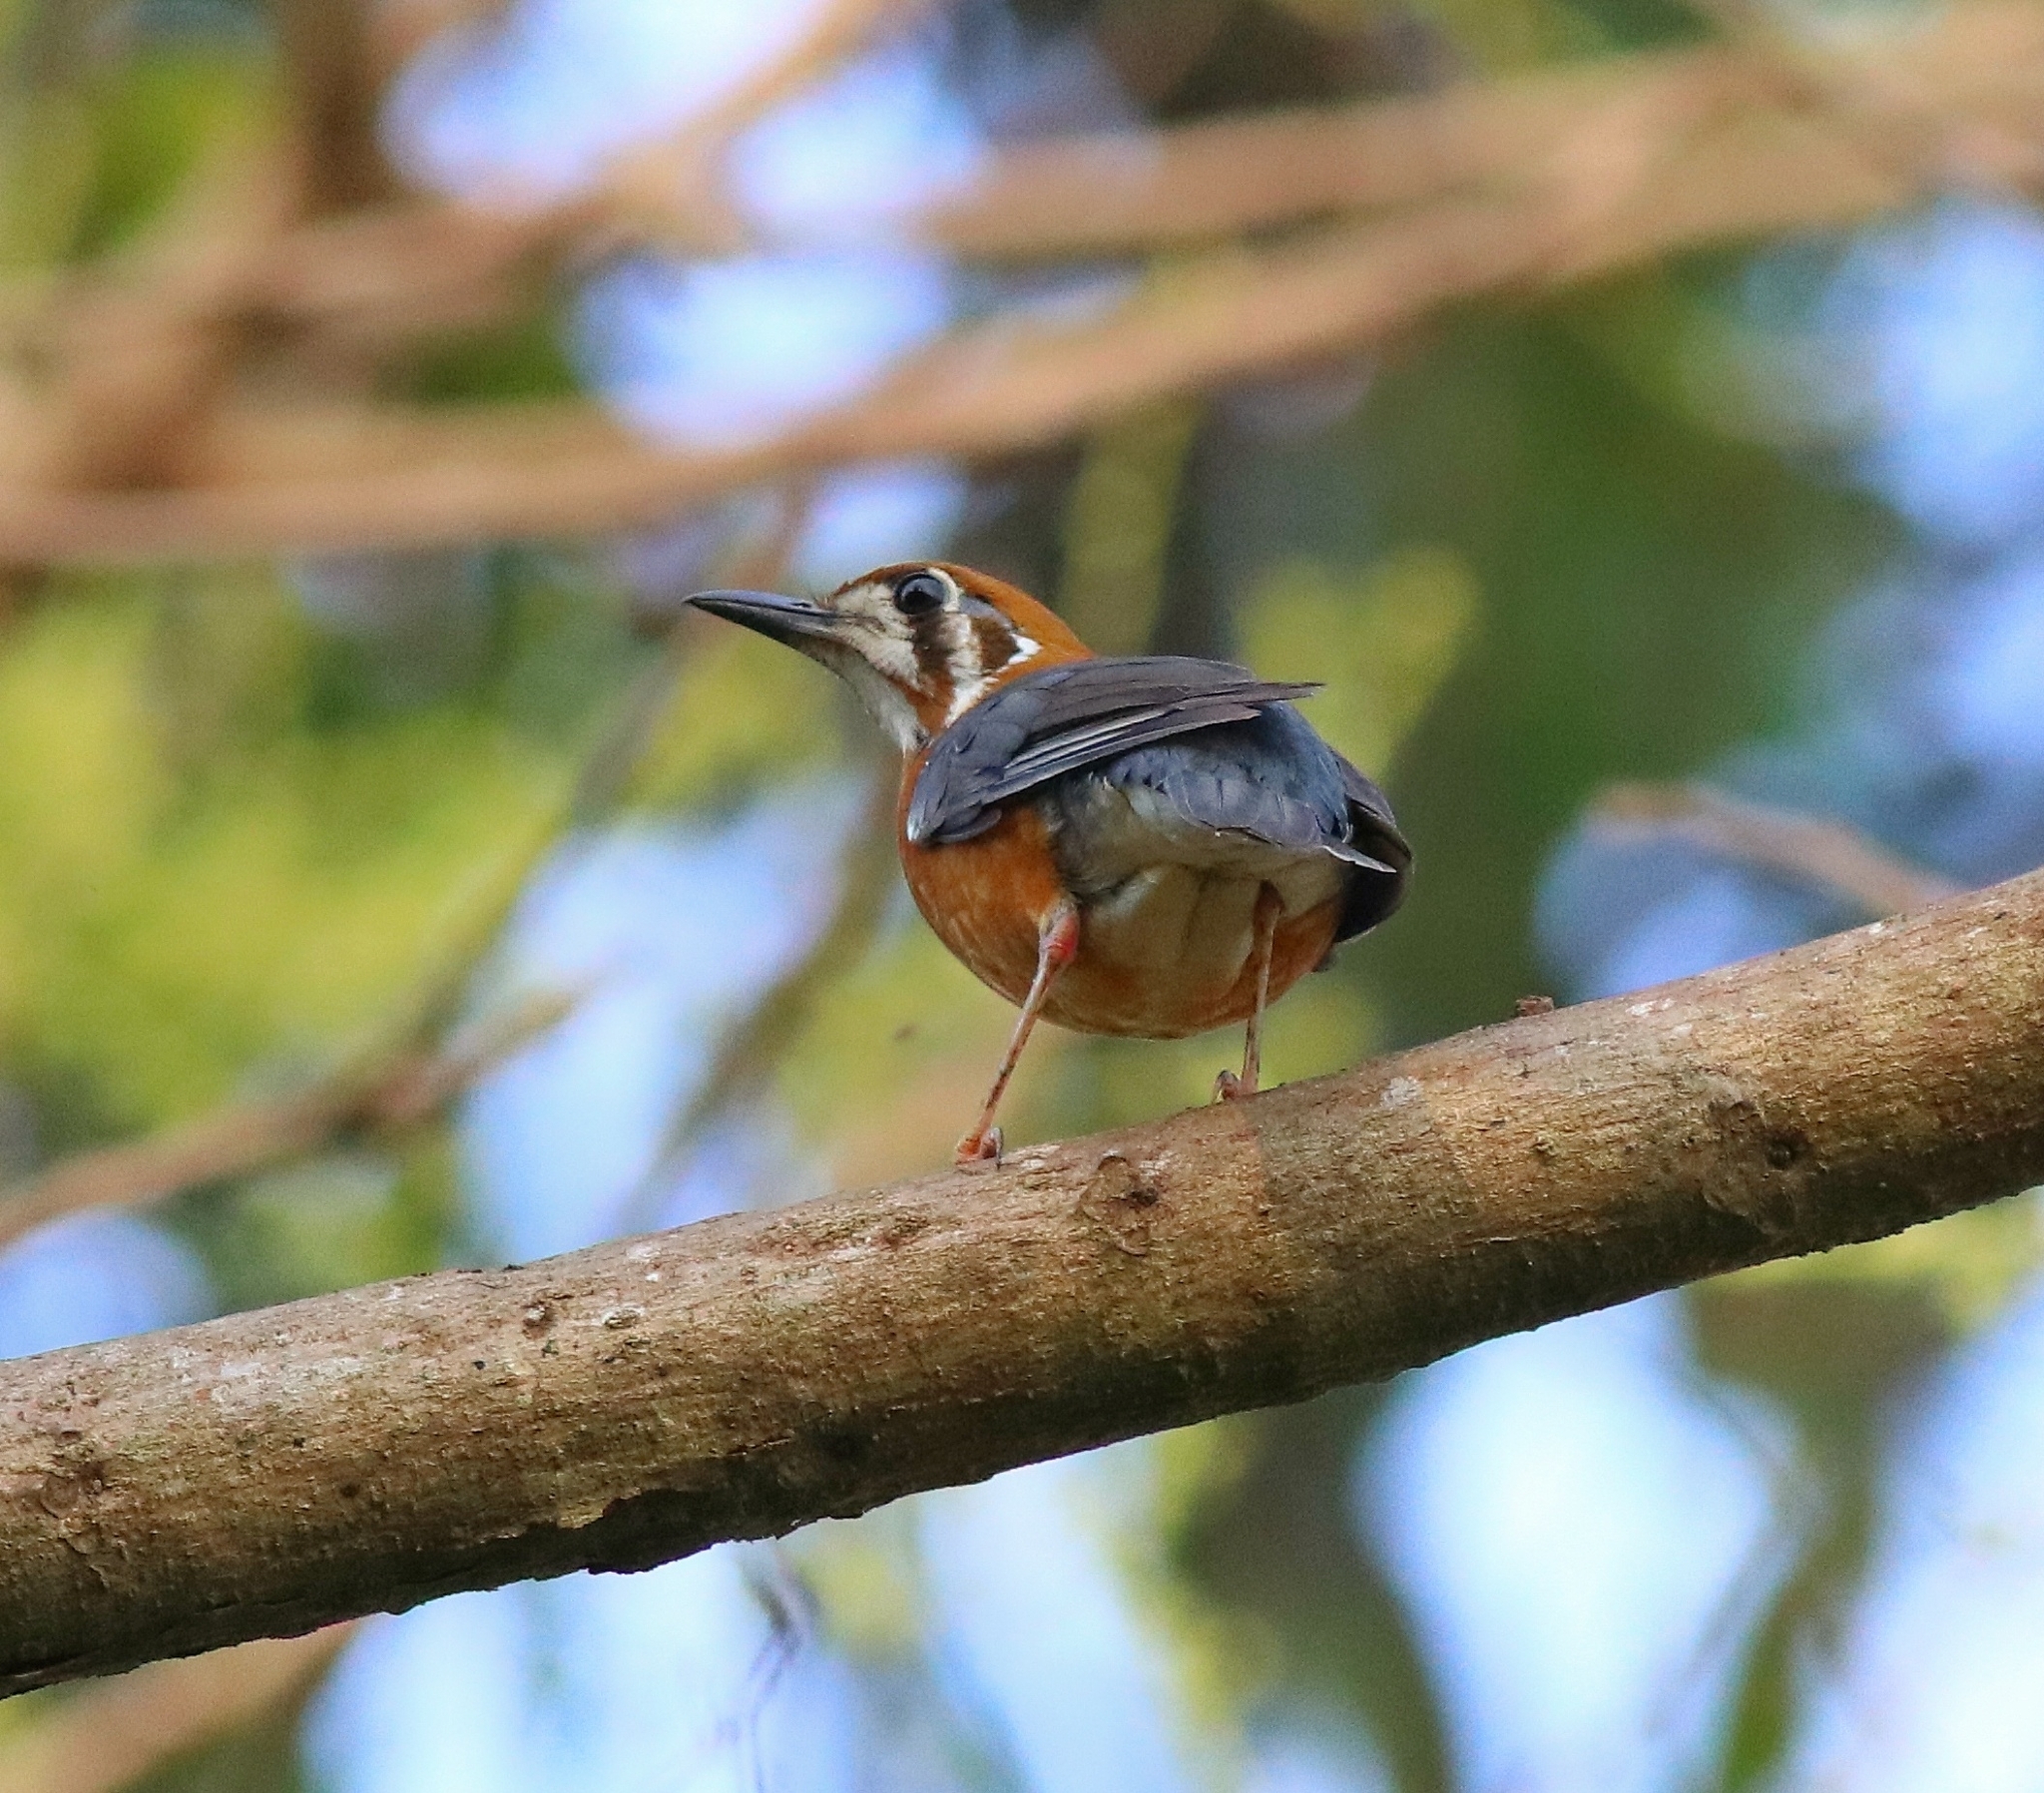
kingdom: Animalia
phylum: Chordata
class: Aves
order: Passeriformes
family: Turdidae
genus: Geokichla
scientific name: Geokichla citrina
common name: Orange-headed thrush
